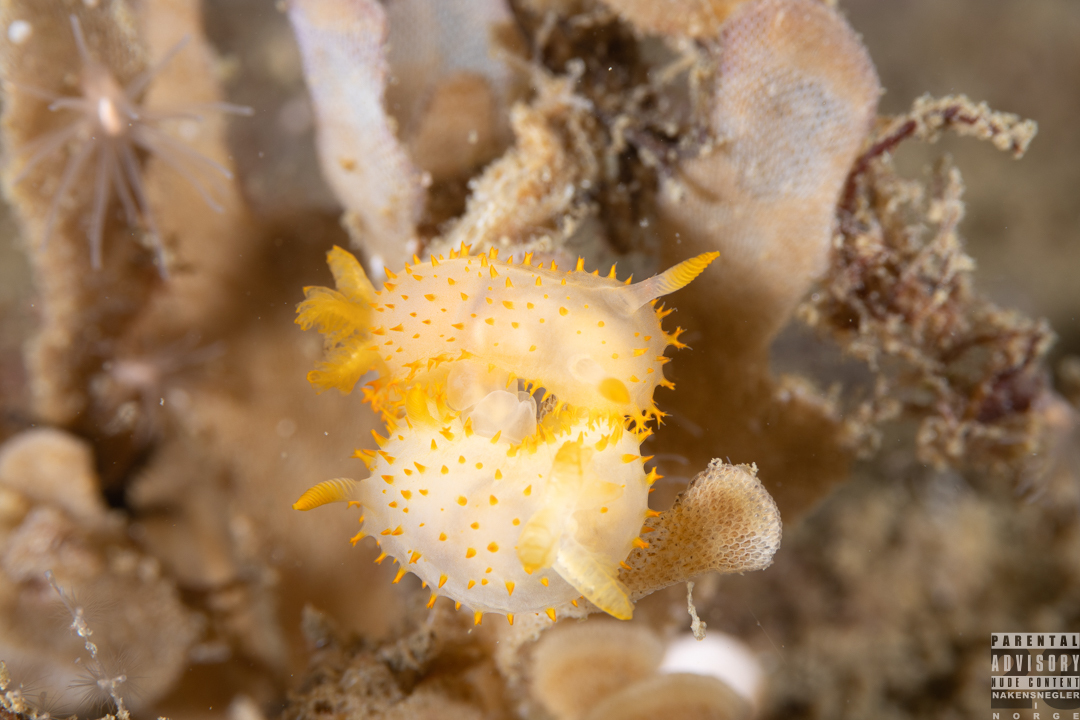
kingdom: Animalia
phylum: Mollusca
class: Gastropoda
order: Nudibranchia
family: Polyceridae
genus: Crimora
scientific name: Crimora papillata
